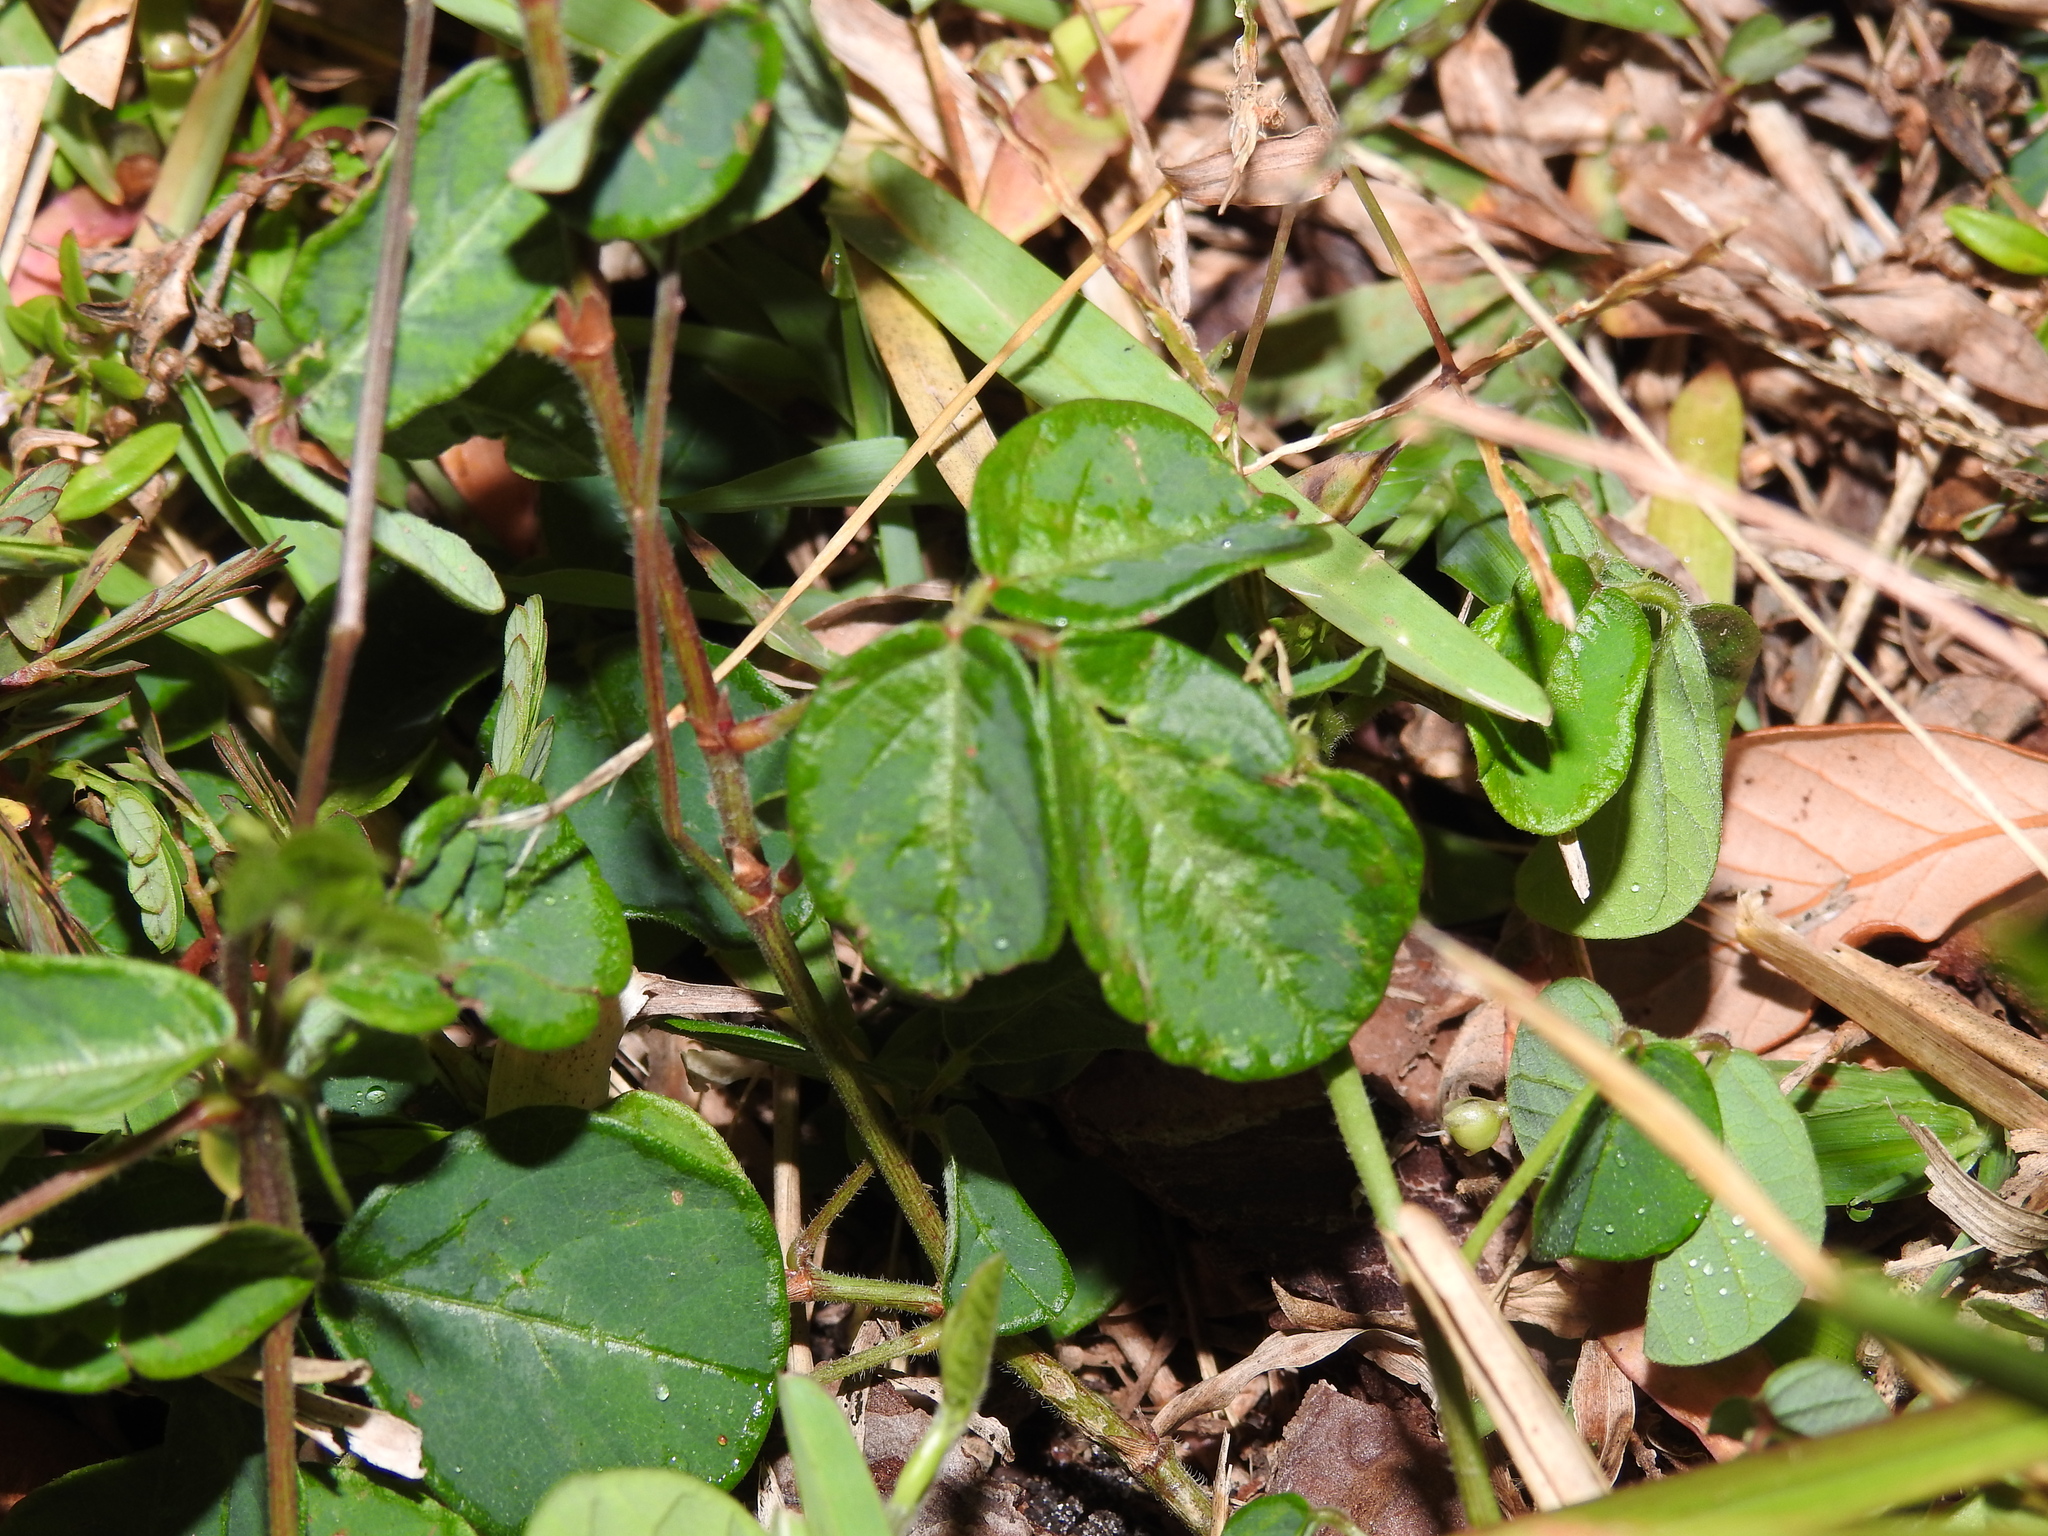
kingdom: Plantae
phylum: Tracheophyta
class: Magnoliopsida
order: Fabales
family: Fabaceae
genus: Desmodium
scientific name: Desmodium incanum
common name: Tickclover
